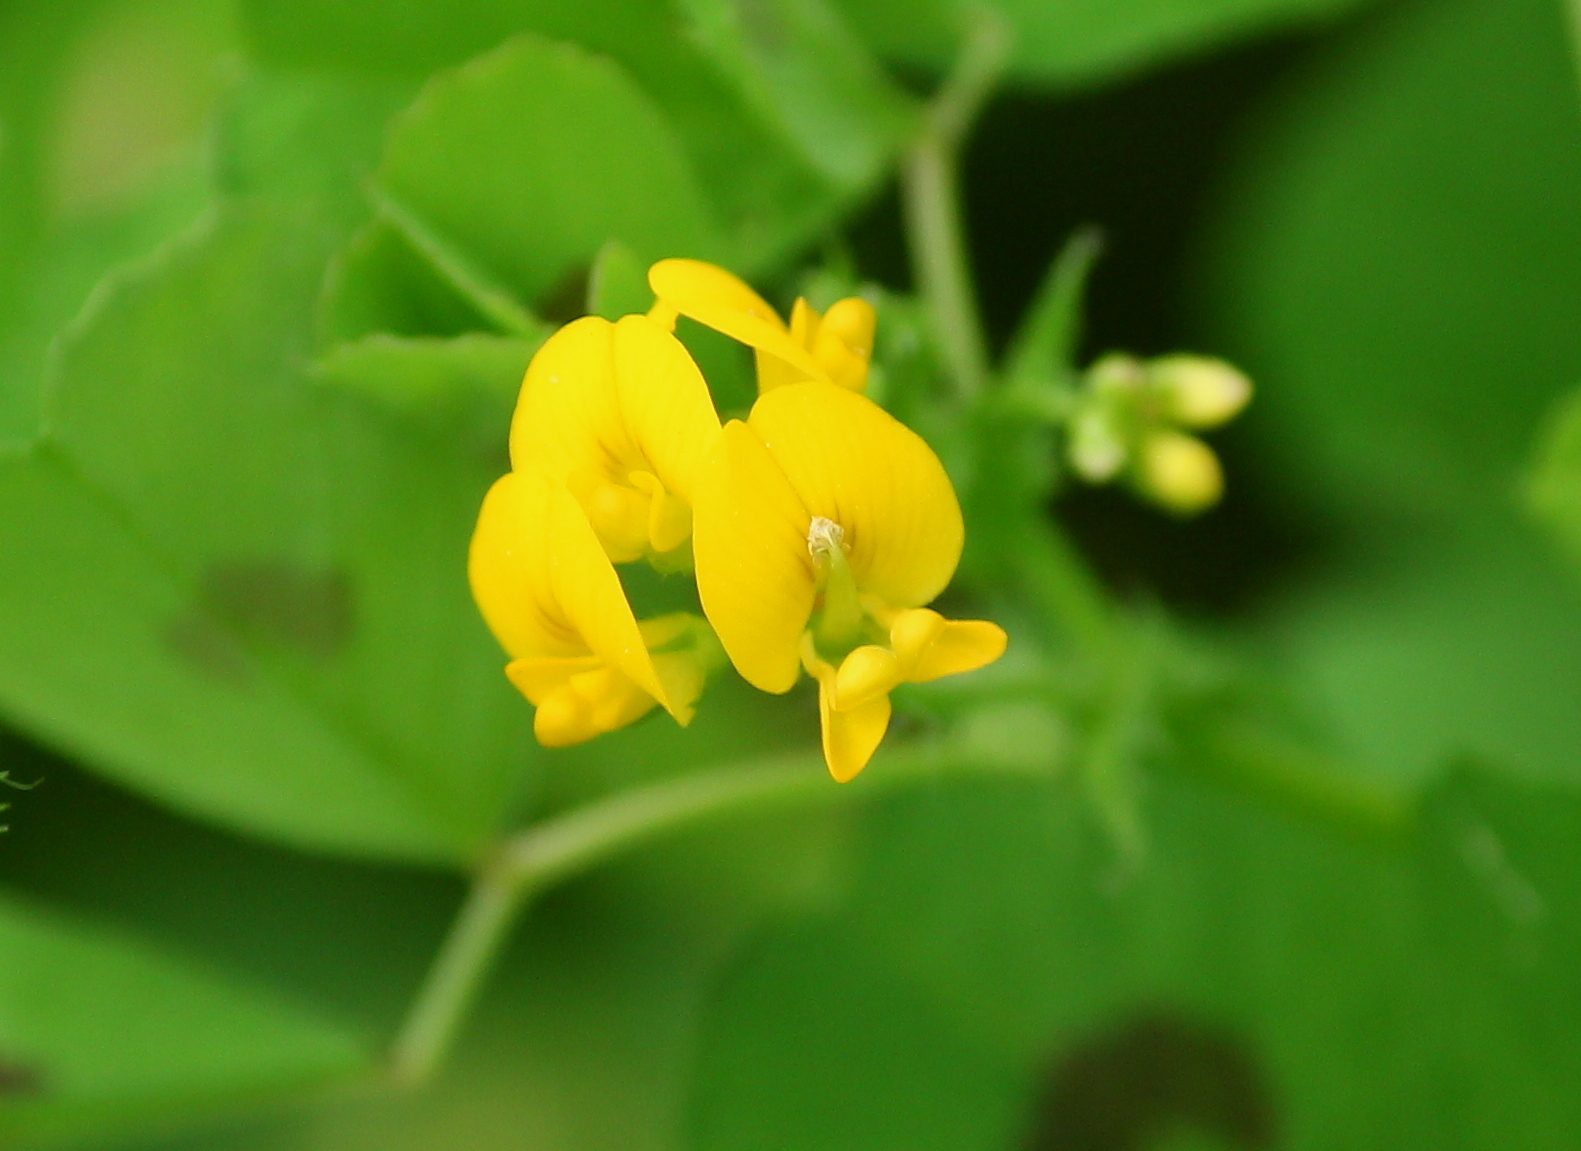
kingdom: Plantae
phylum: Tracheophyta
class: Magnoliopsida
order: Fabales
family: Fabaceae
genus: Medicago
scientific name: Medicago arabica
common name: Spotted medick
